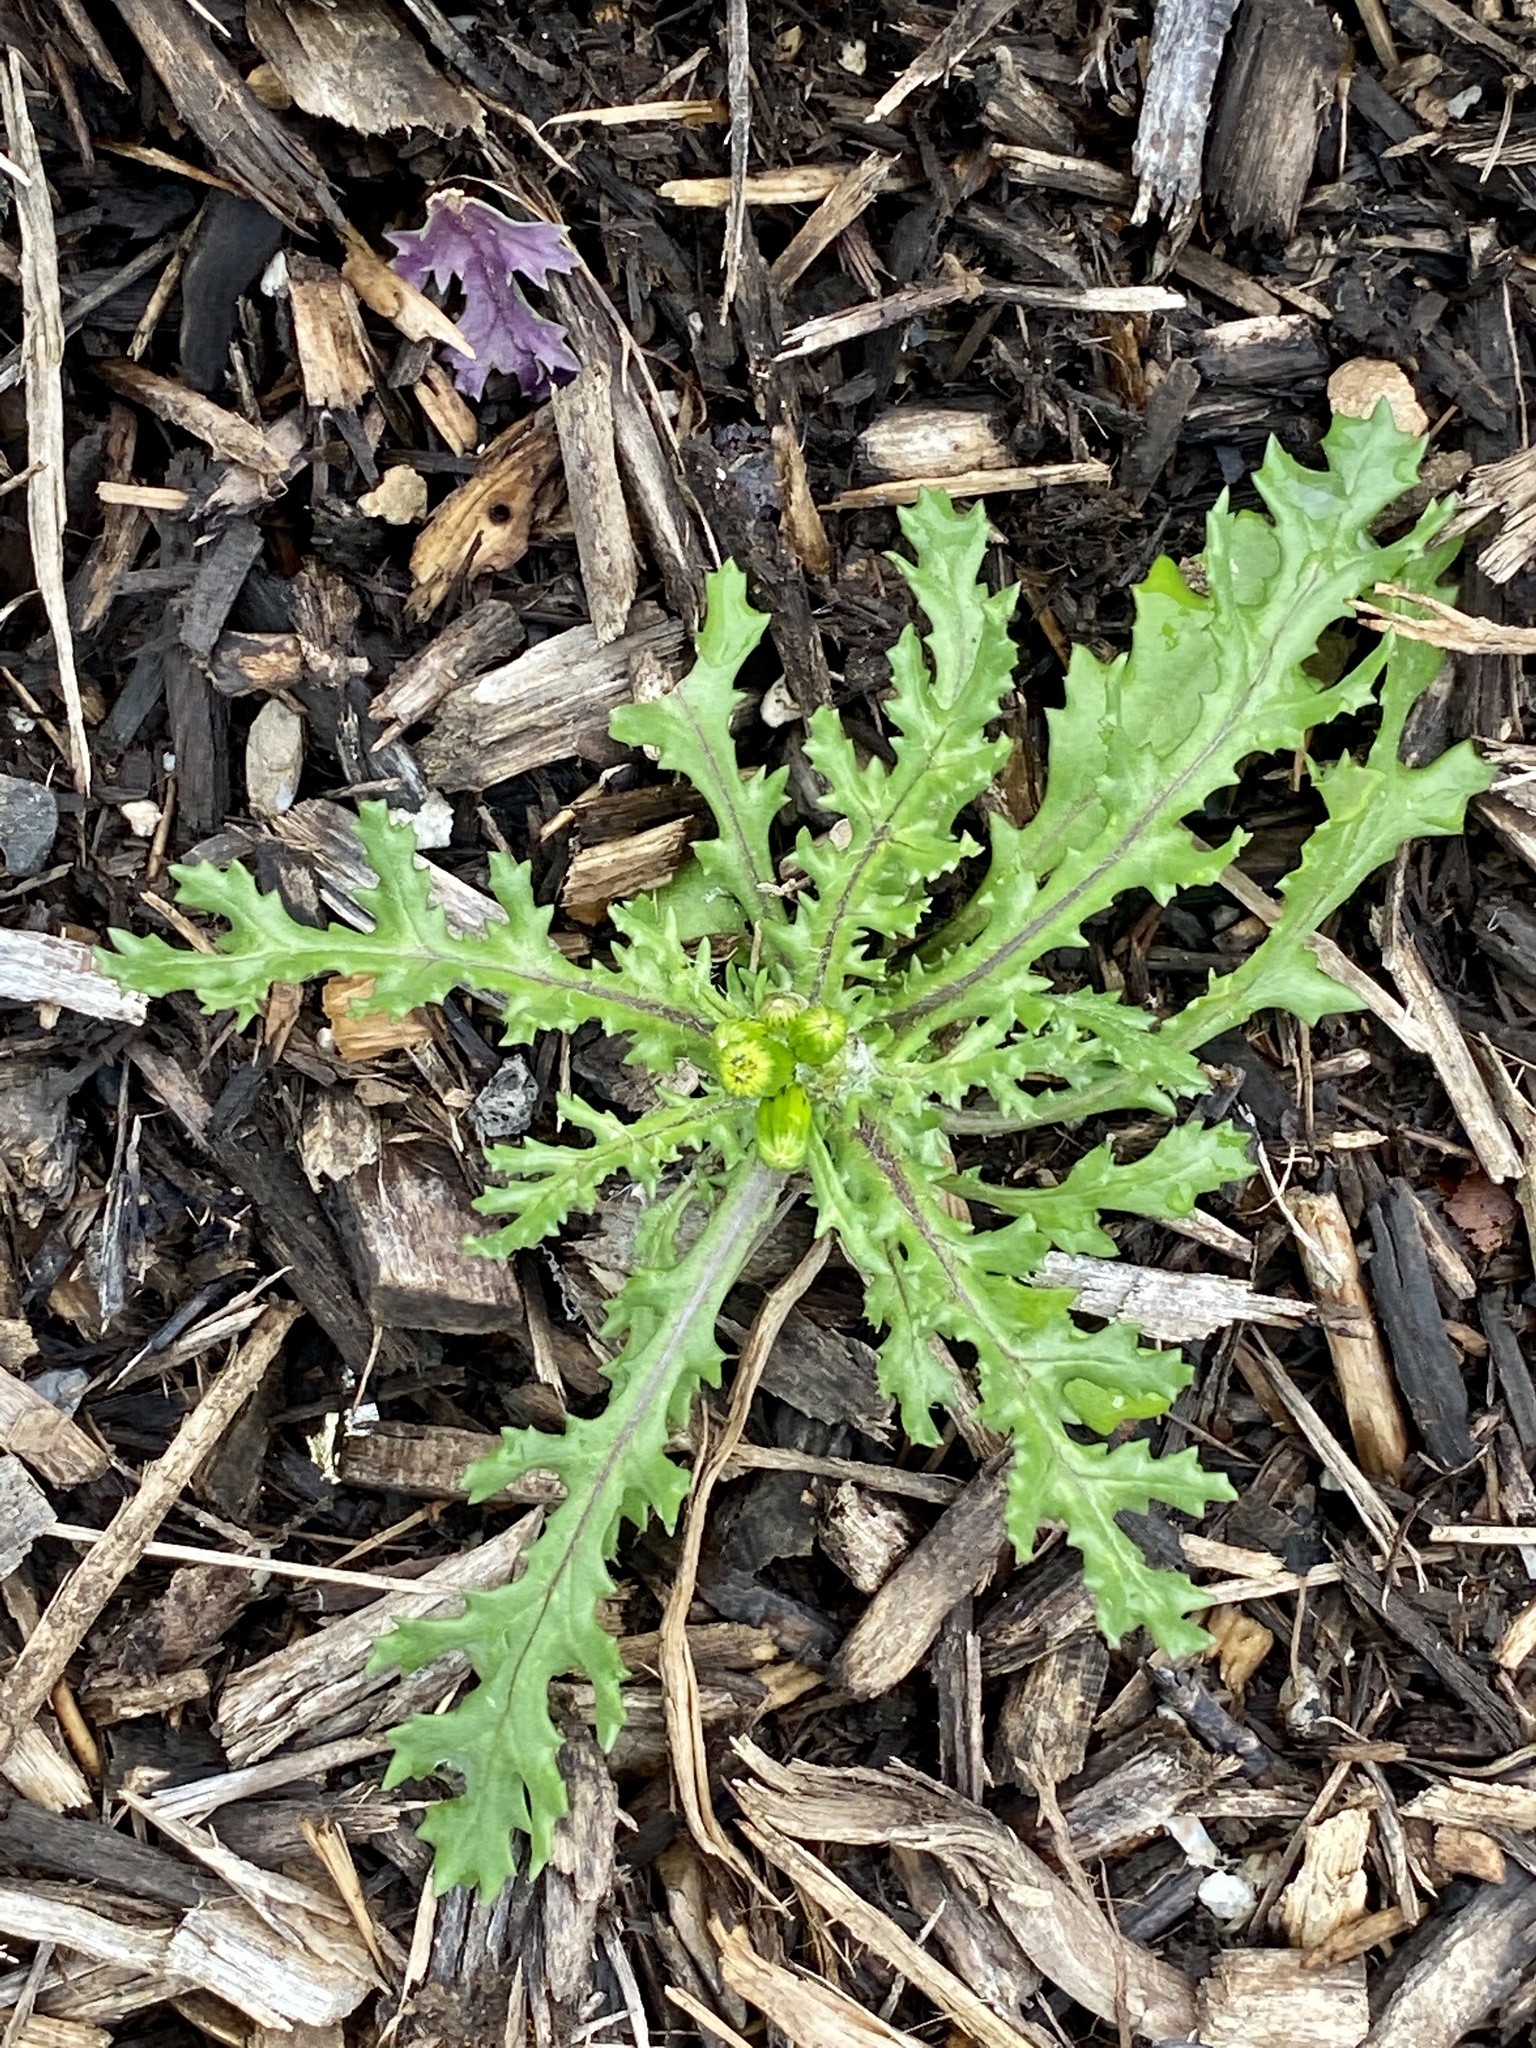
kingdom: Plantae
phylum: Tracheophyta
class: Magnoliopsida
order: Asterales
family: Asteraceae
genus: Senecio
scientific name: Senecio vulgaris
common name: Old-man-in-the-spring
